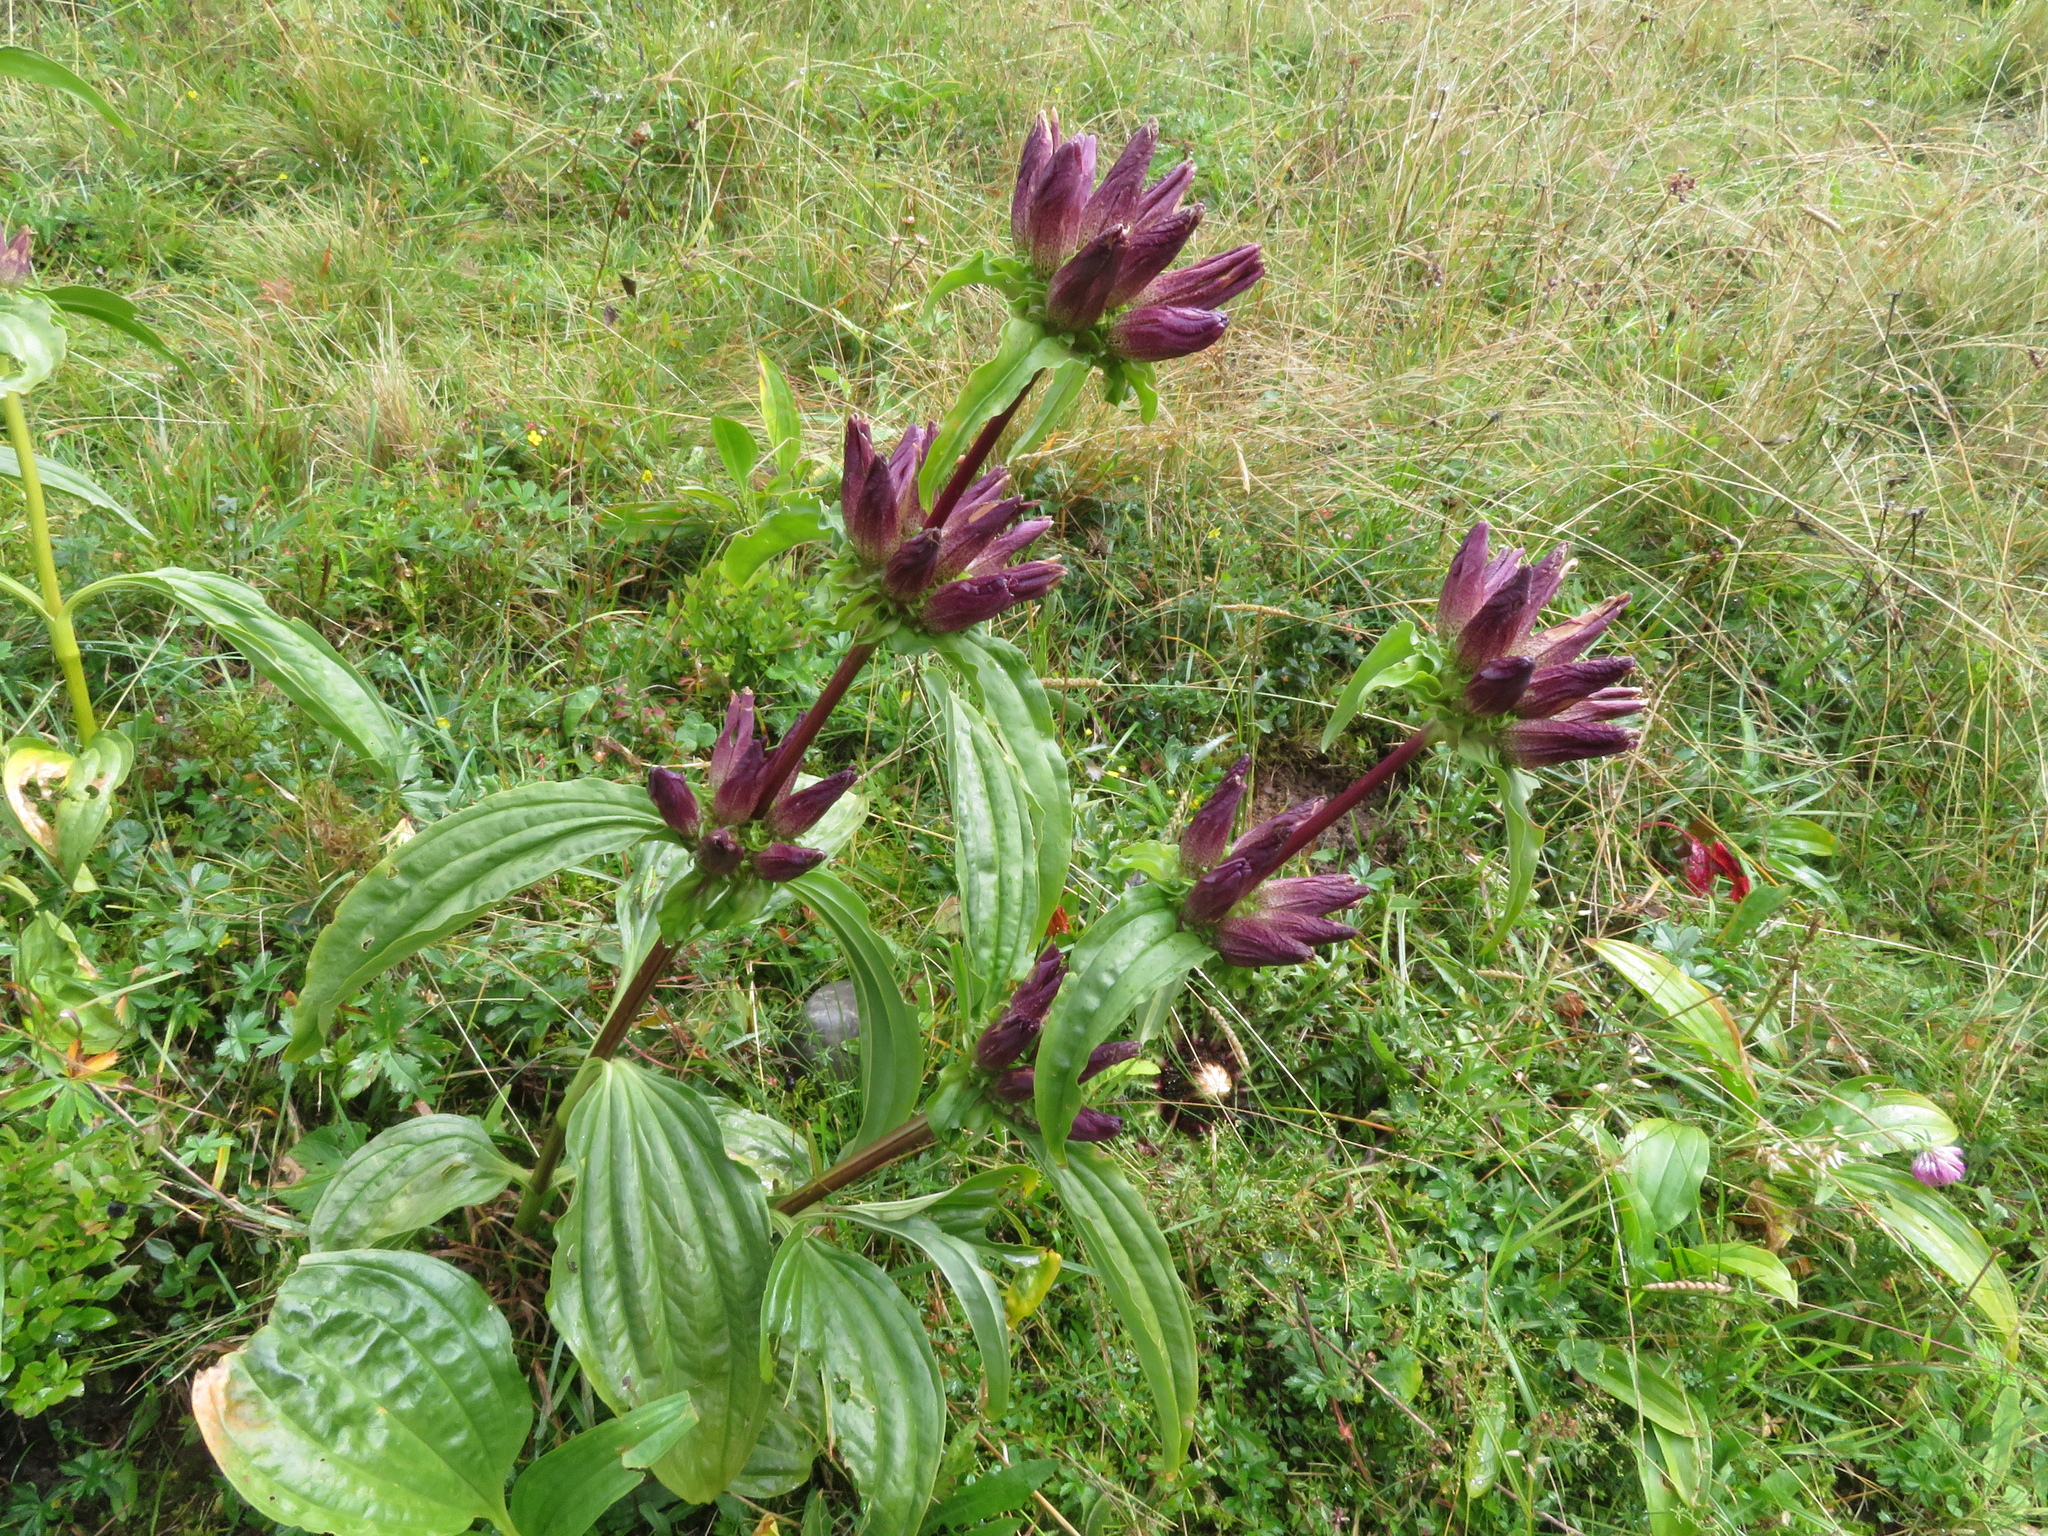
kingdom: Plantae
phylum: Tracheophyta
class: Magnoliopsida
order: Gentianales
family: Gentianaceae
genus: Gentiana
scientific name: Gentiana pannonica
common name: Hungarian gentian
